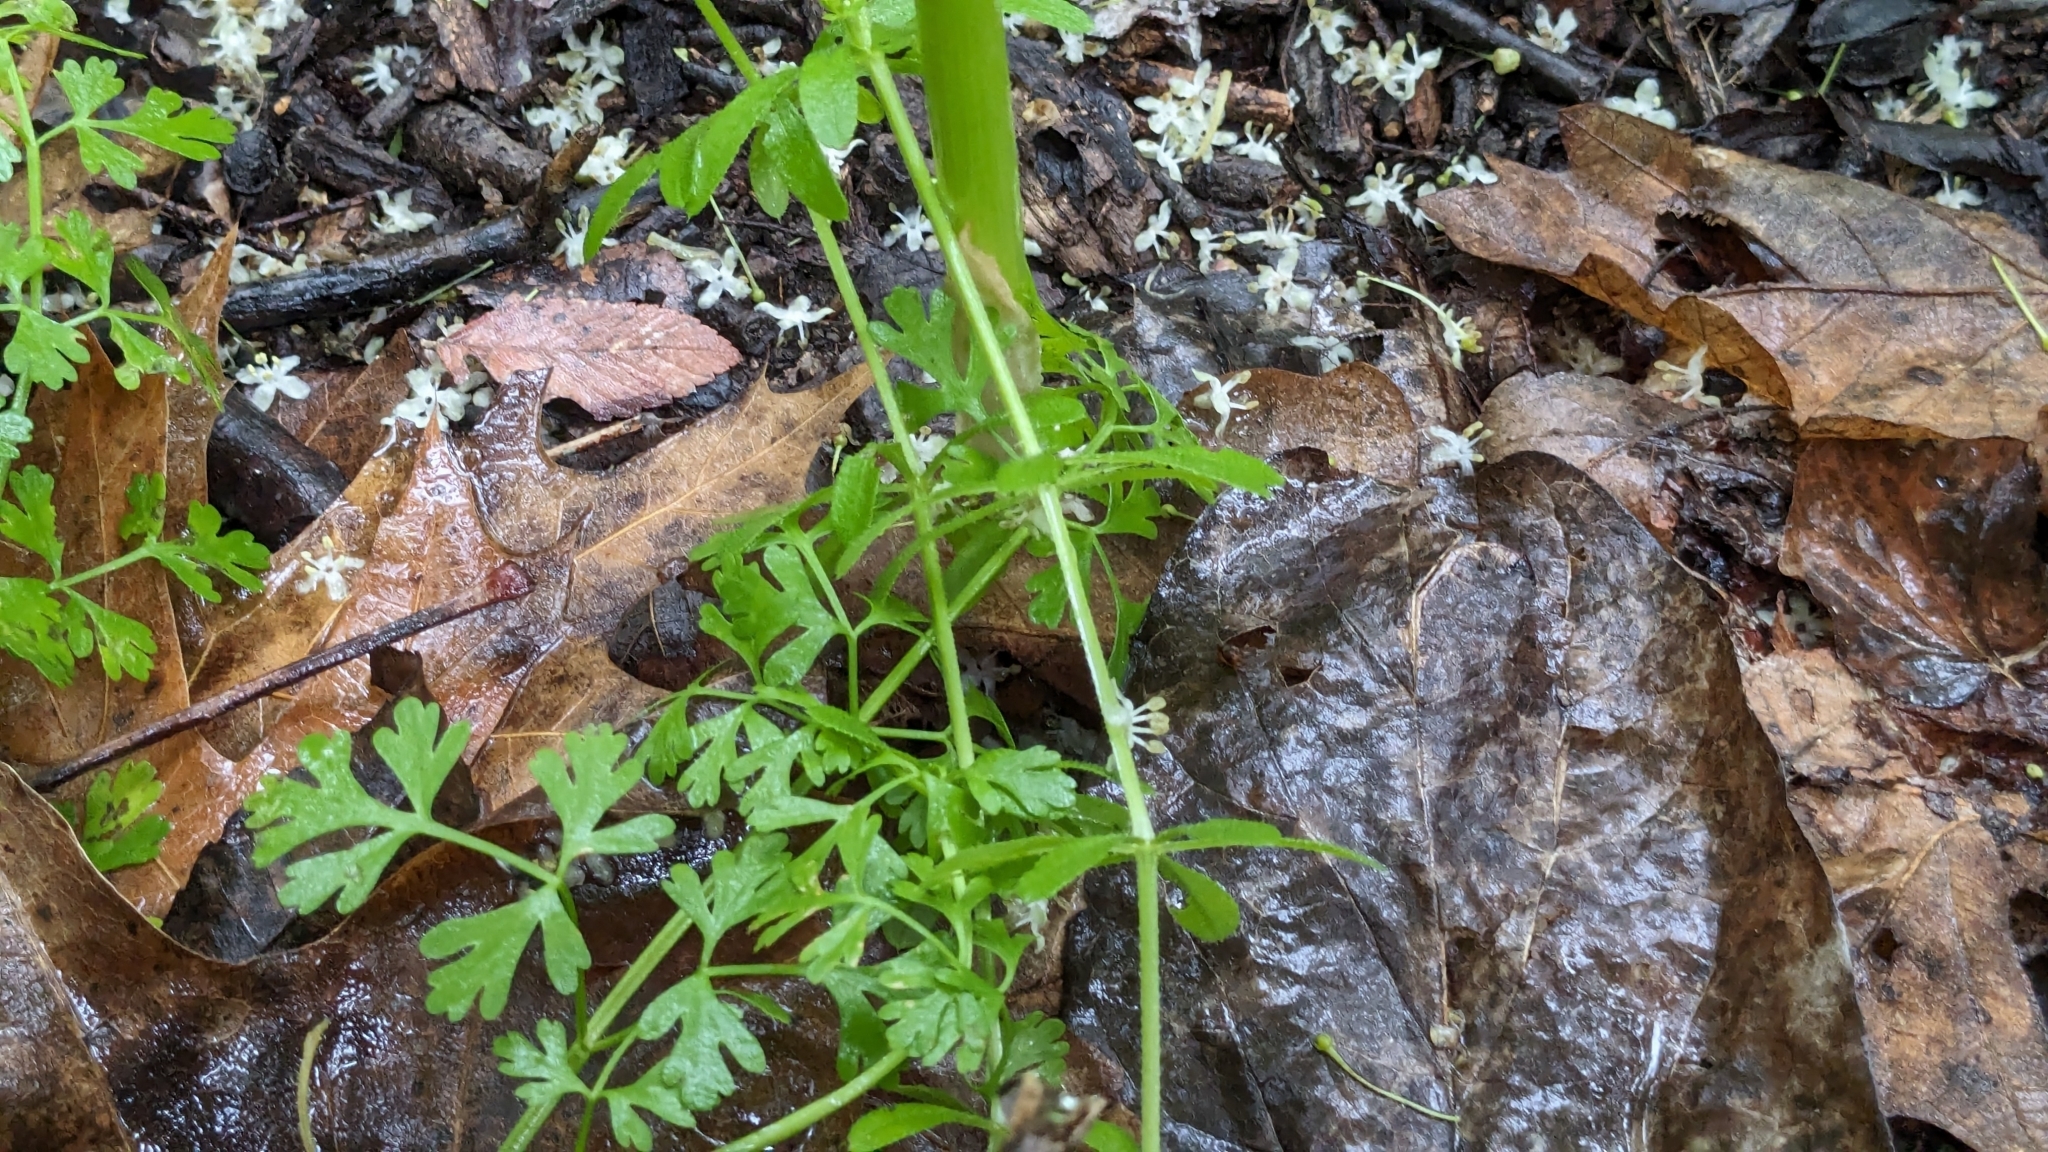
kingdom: Plantae
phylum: Tracheophyta
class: Liliopsida
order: Alismatales
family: Araceae
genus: Arisaema
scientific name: Arisaema dracontium
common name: Dragon-arum
